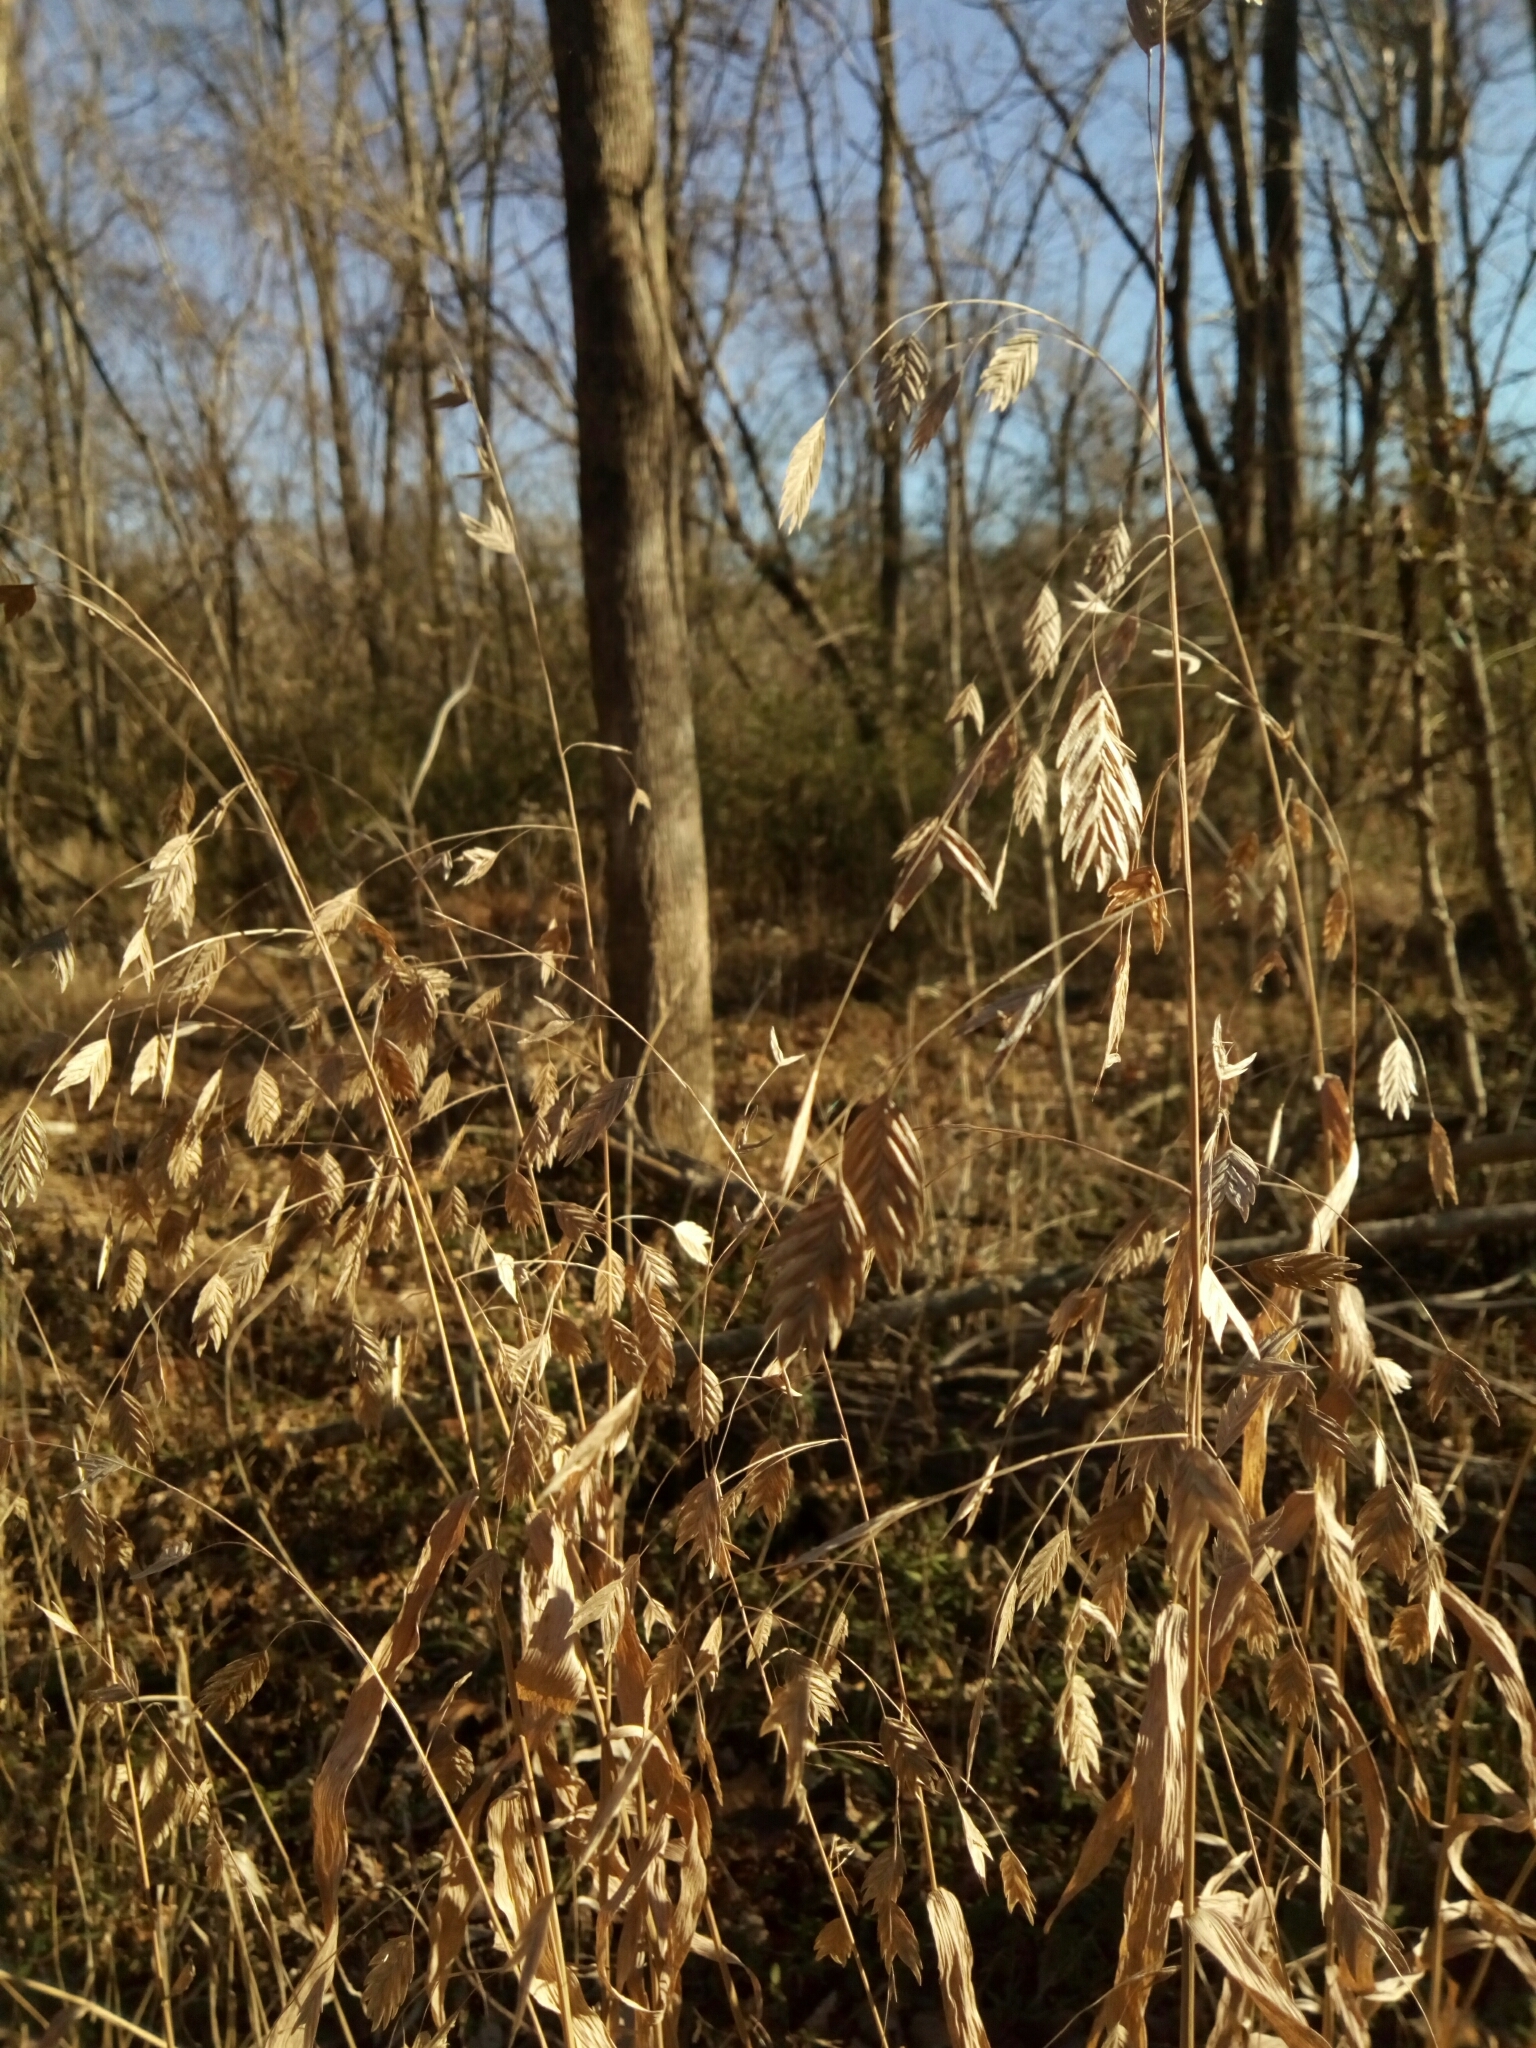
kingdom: Plantae
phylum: Tracheophyta
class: Liliopsida
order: Poales
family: Poaceae
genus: Chasmanthium
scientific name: Chasmanthium latifolium
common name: Broad-leaved chasmanthium
